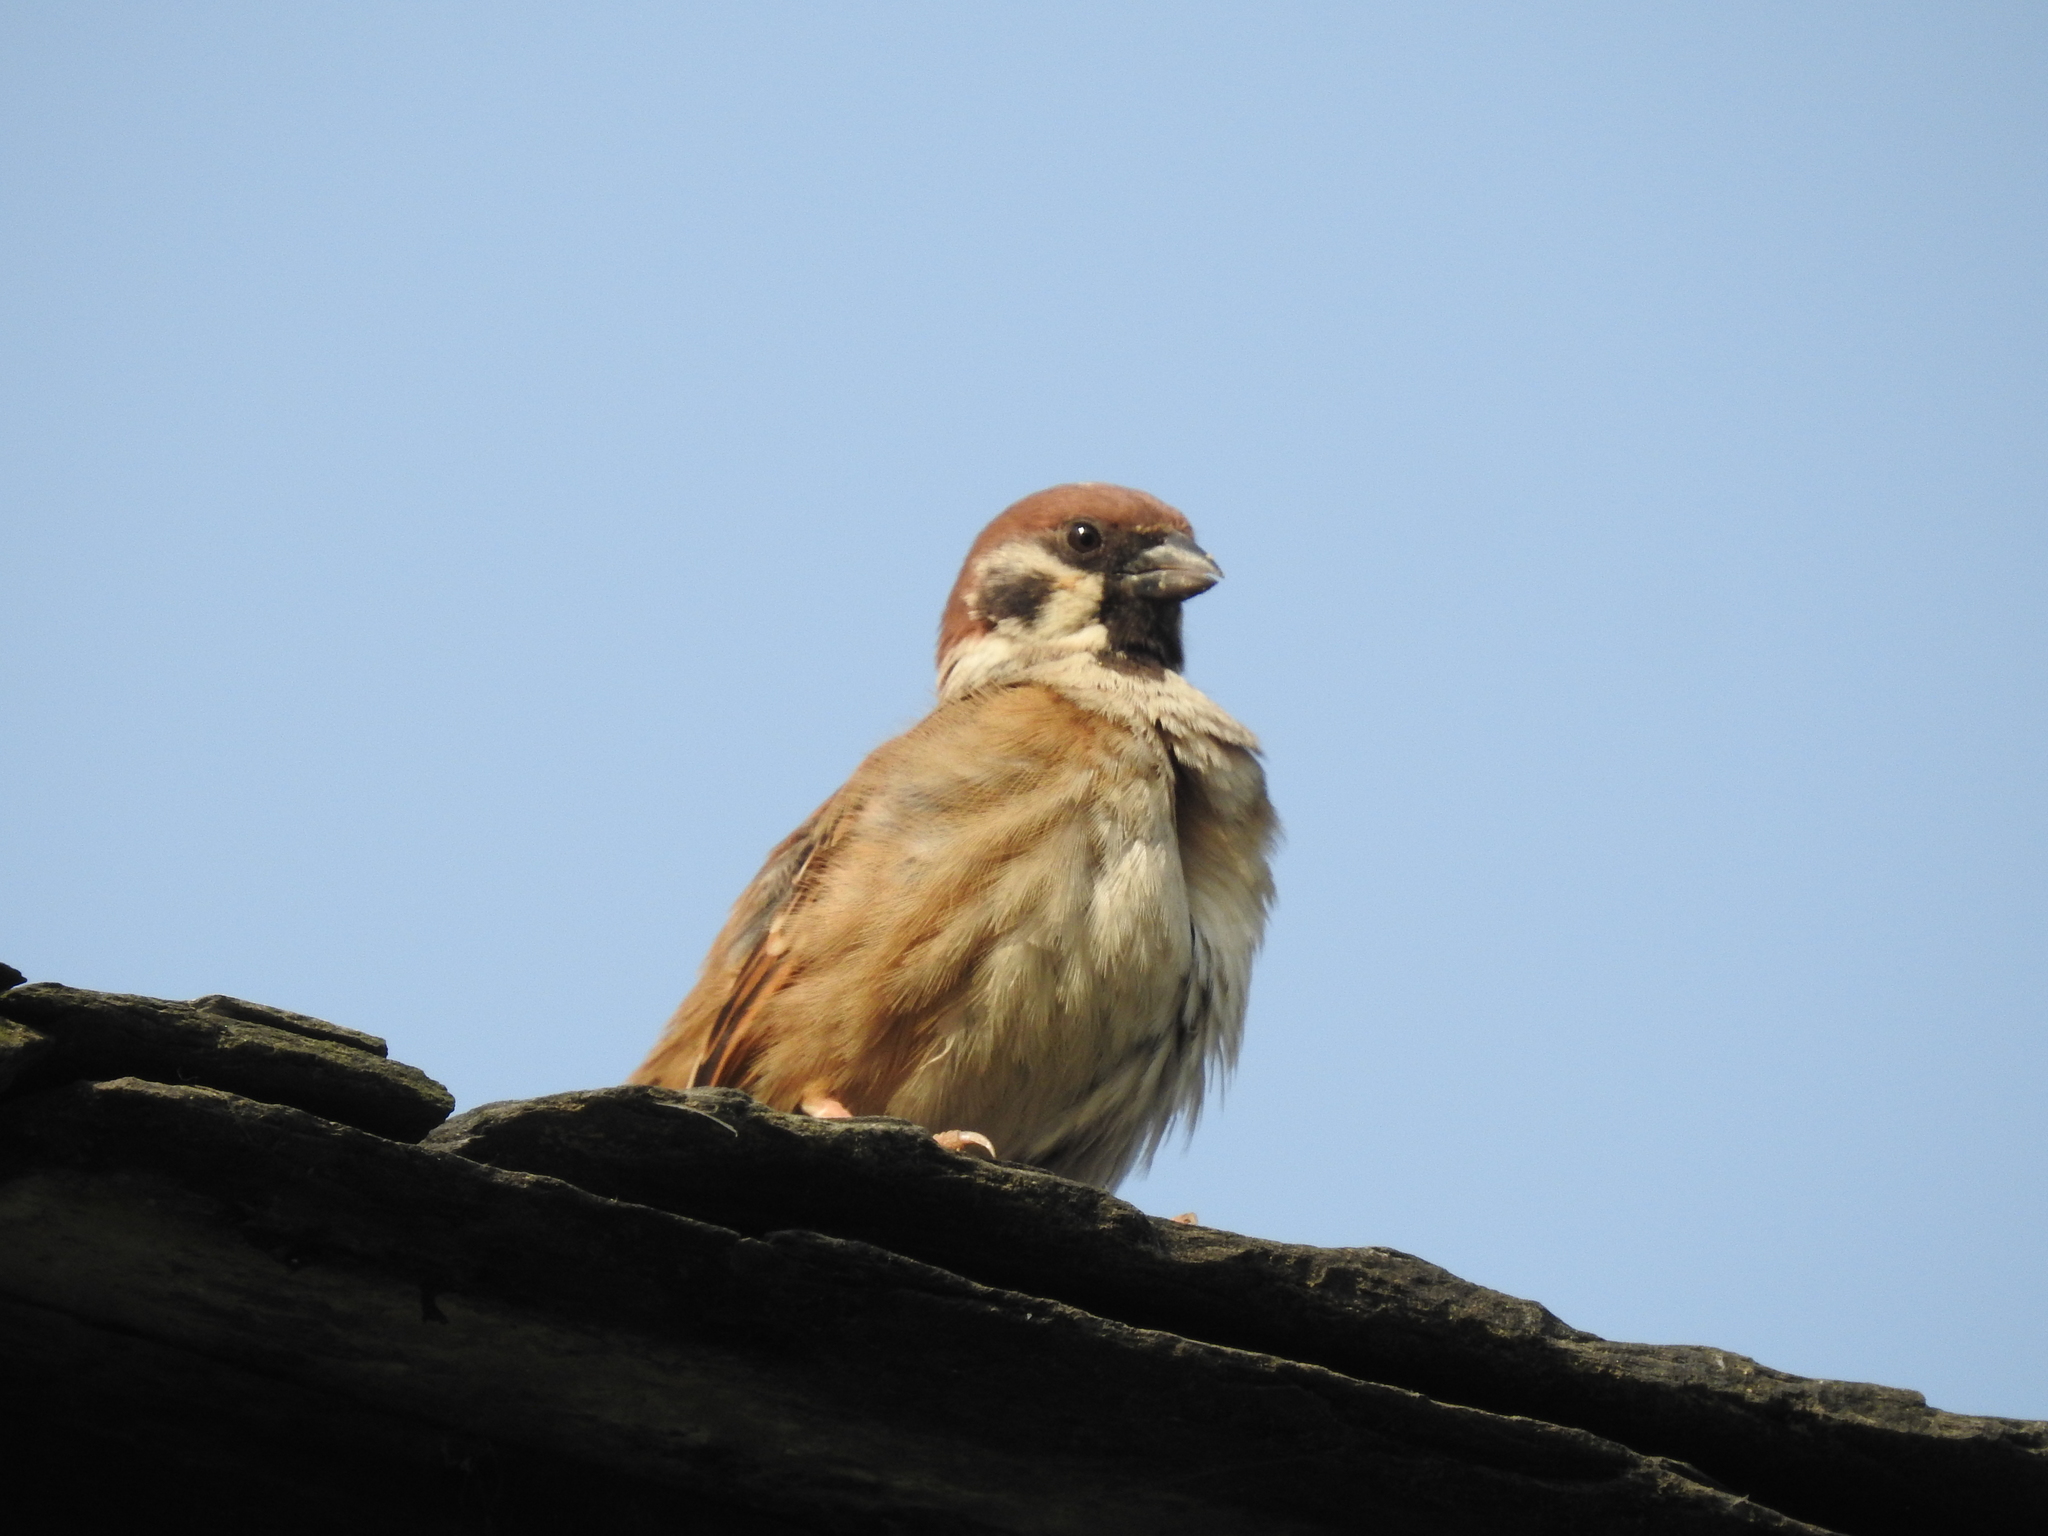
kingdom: Animalia
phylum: Chordata
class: Aves
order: Passeriformes
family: Passeridae
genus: Passer
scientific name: Passer montanus
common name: Eurasian tree sparrow
